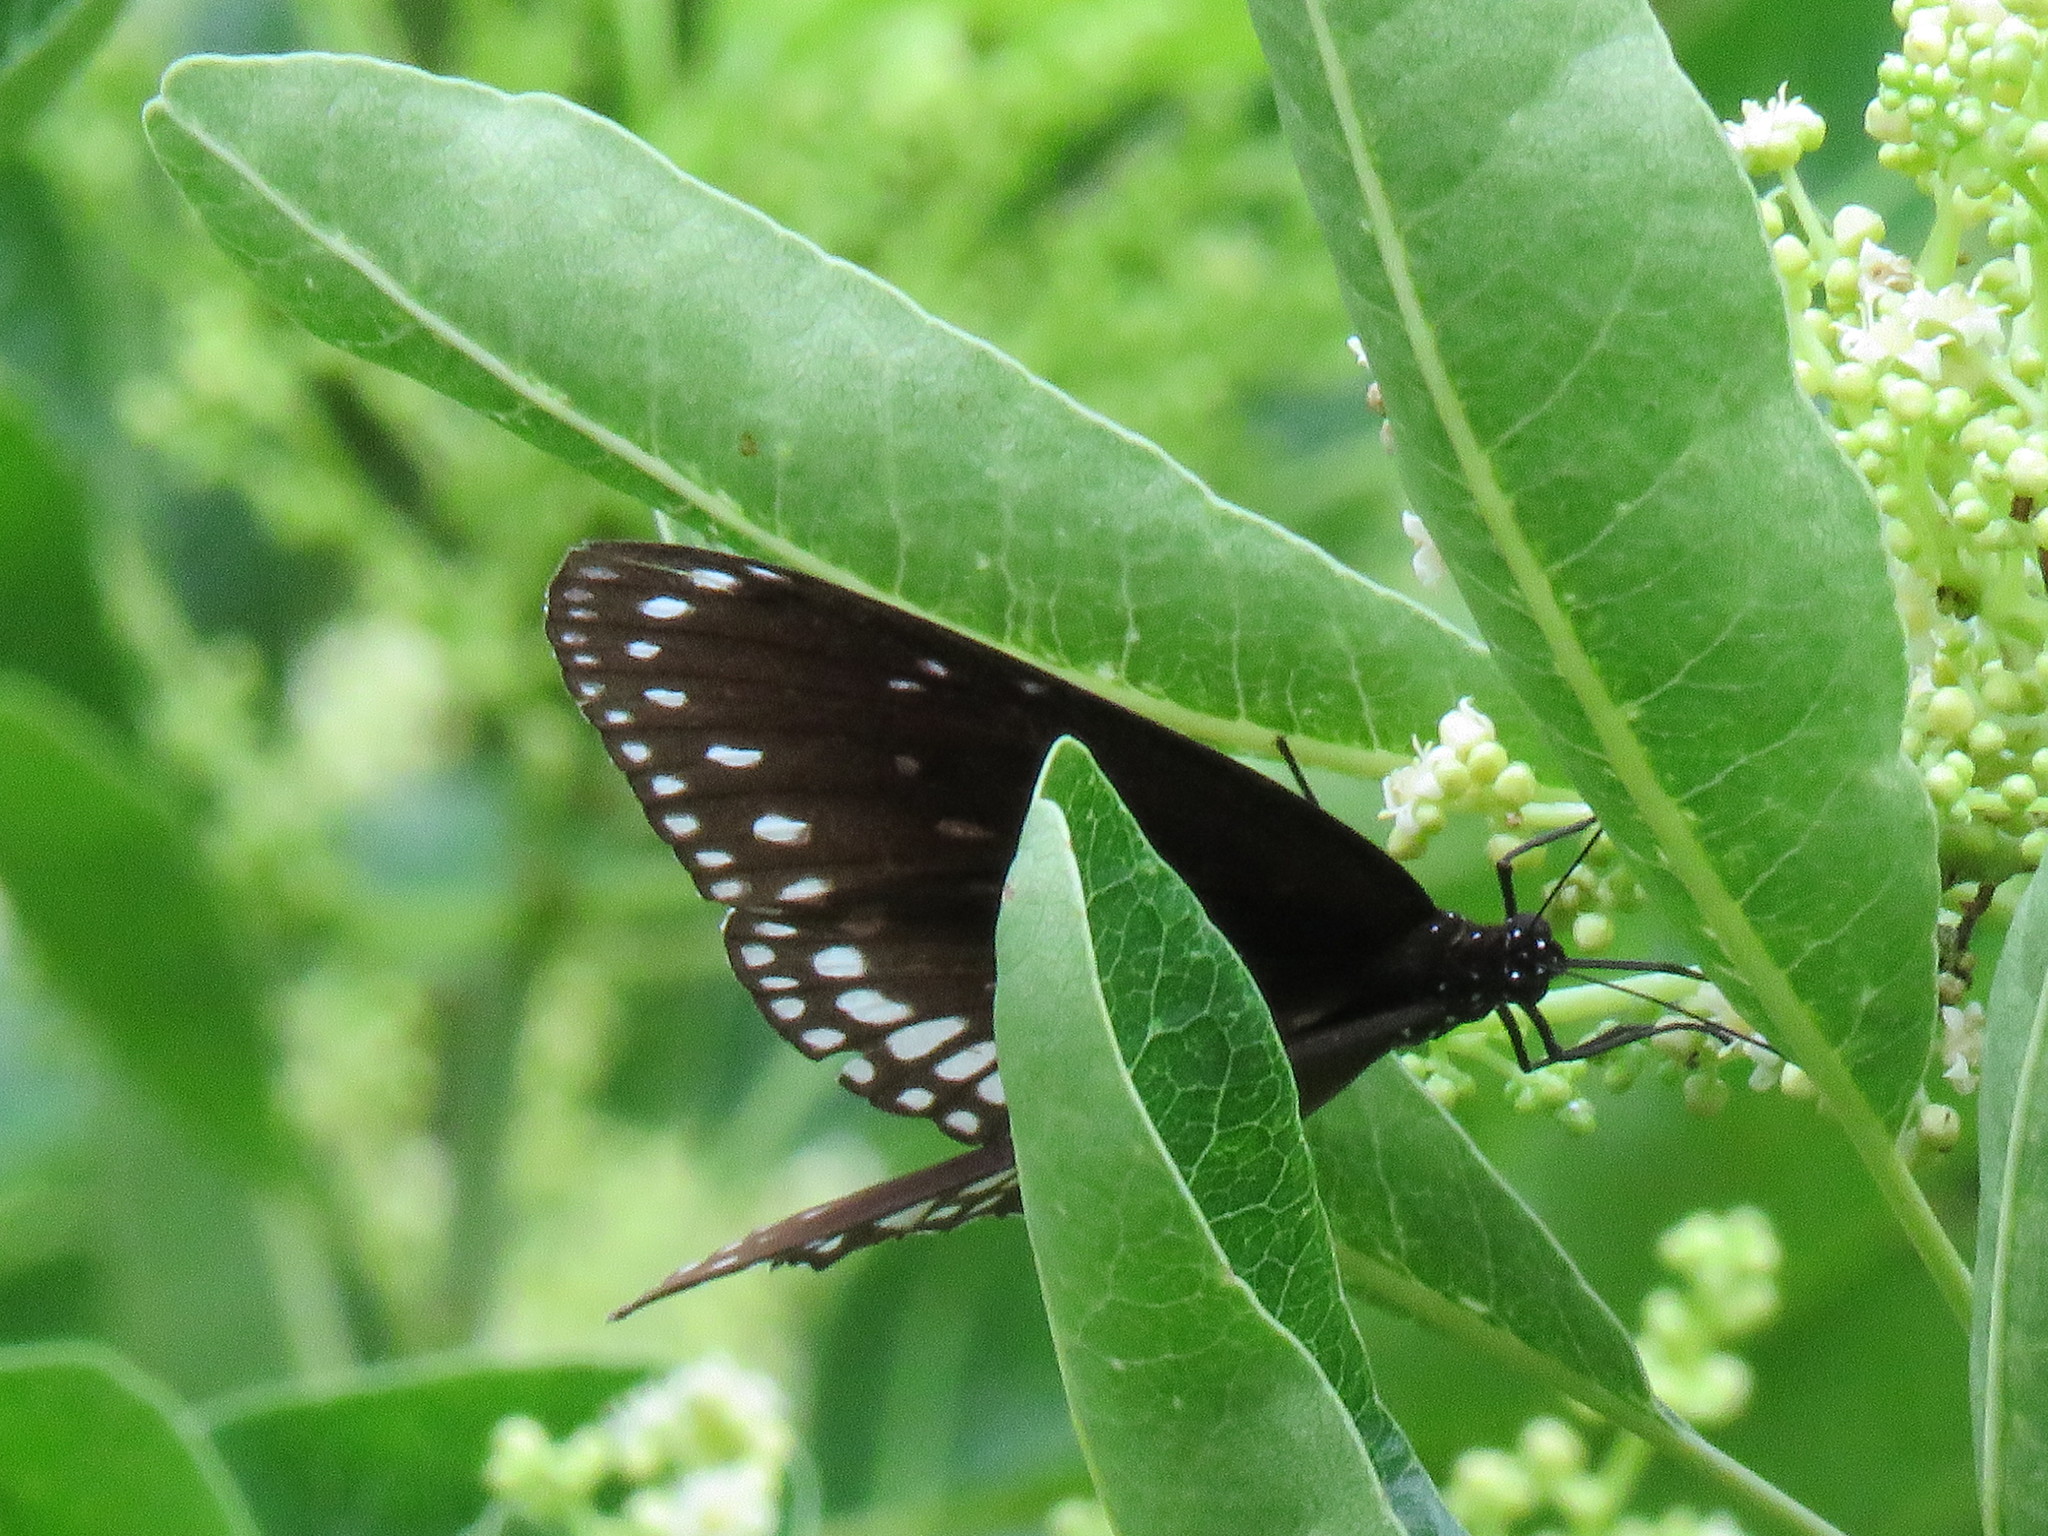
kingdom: Animalia
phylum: Arthropoda
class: Insecta
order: Lepidoptera
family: Nymphalidae
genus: Euploea
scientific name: Euploea sylvester
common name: Double-branded crow butterfly
